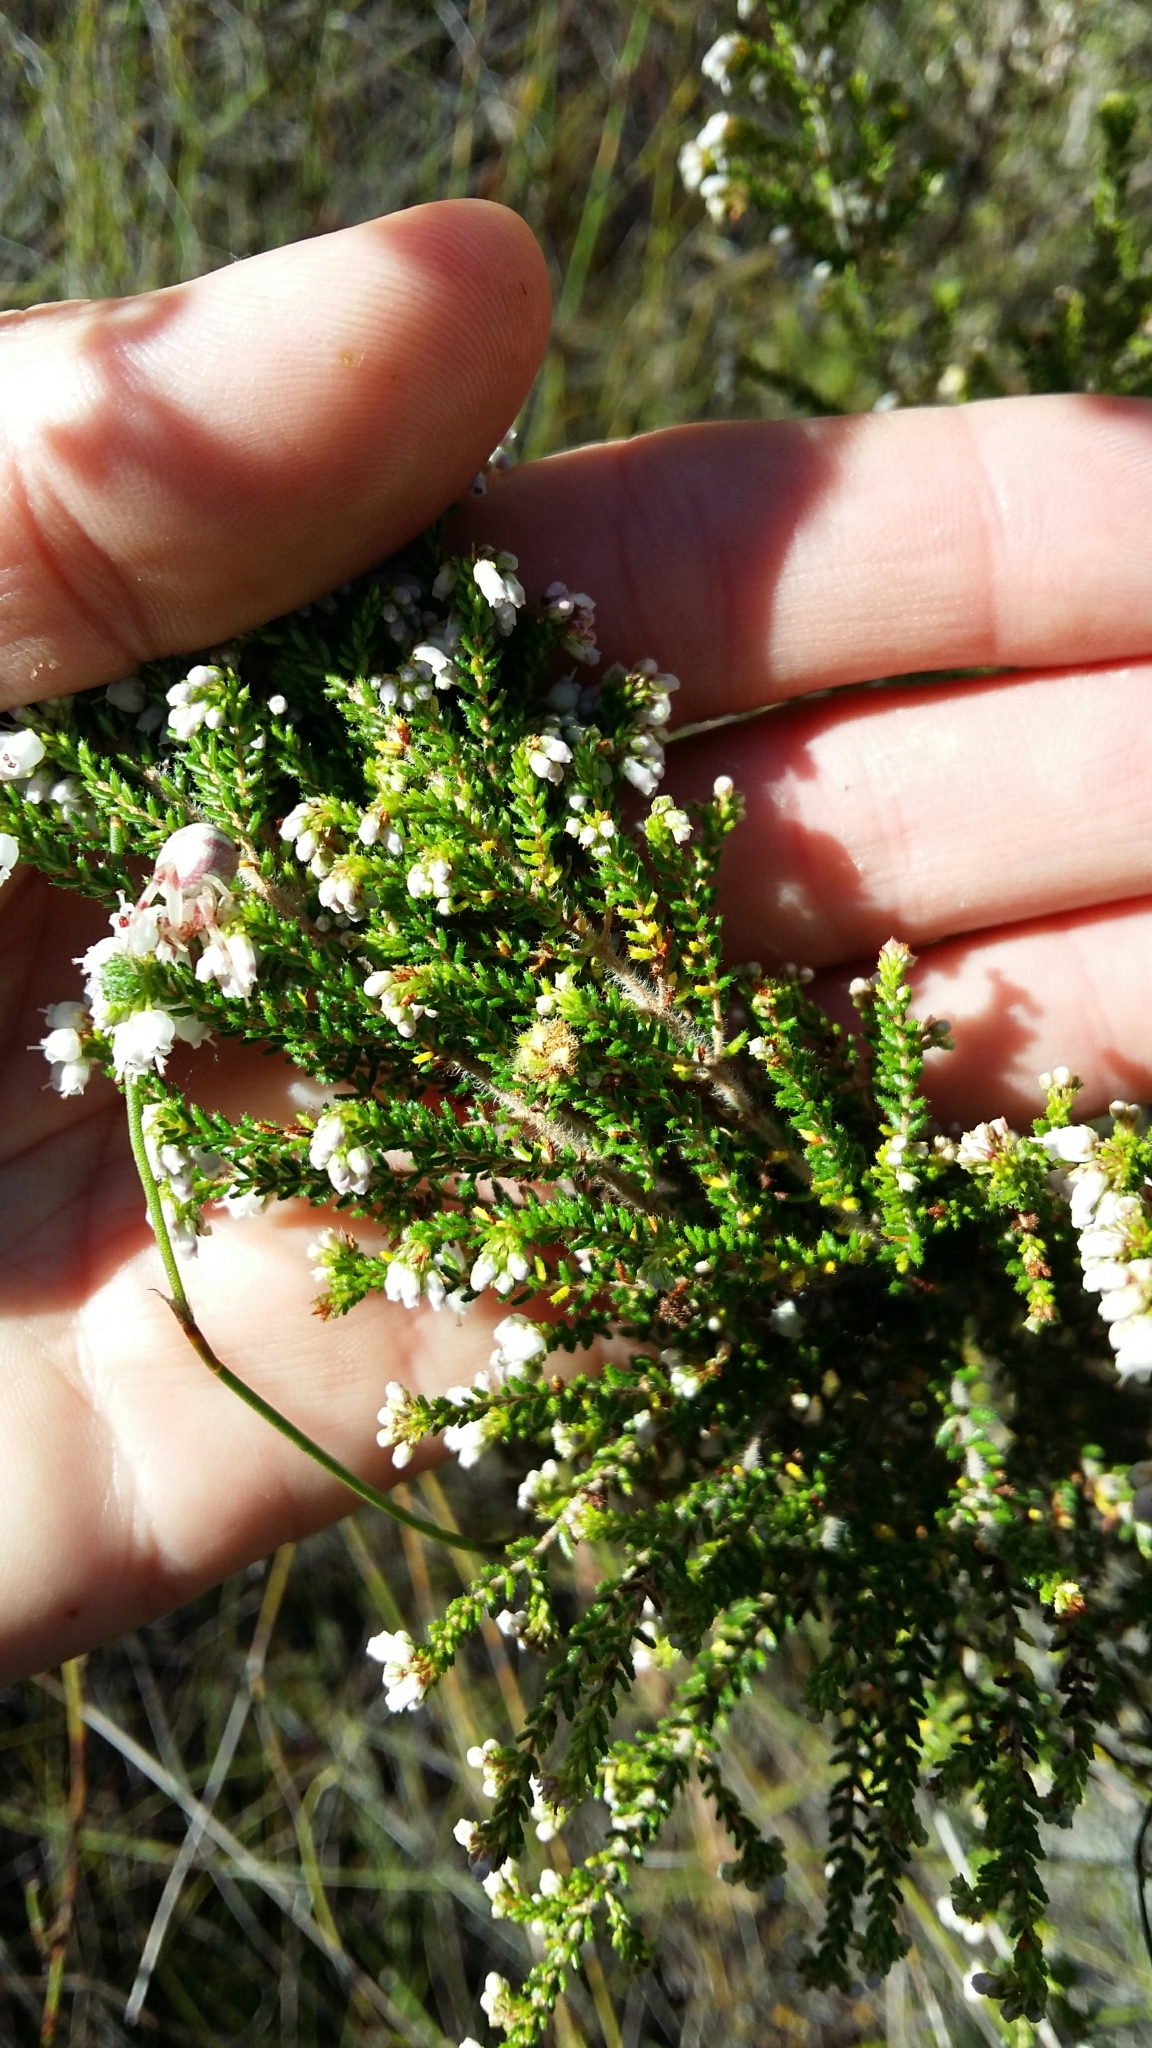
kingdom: Plantae
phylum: Tracheophyta
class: Magnoliopsida
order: Ericales
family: Ericaceae
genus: Erica
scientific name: Erica scabriuscula
